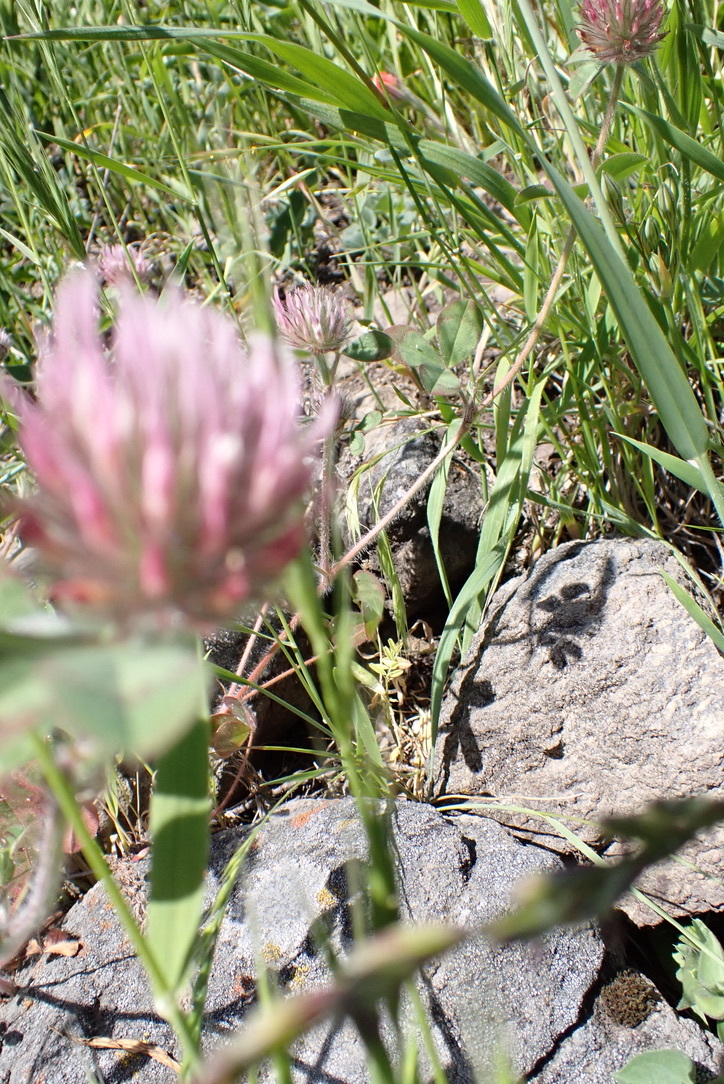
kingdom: Plantae
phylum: Tracheophyta
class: Magnoliopsida
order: Fabales
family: Fabaceae
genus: Trifolium
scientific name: Trifolium hirtum
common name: Rose clover
